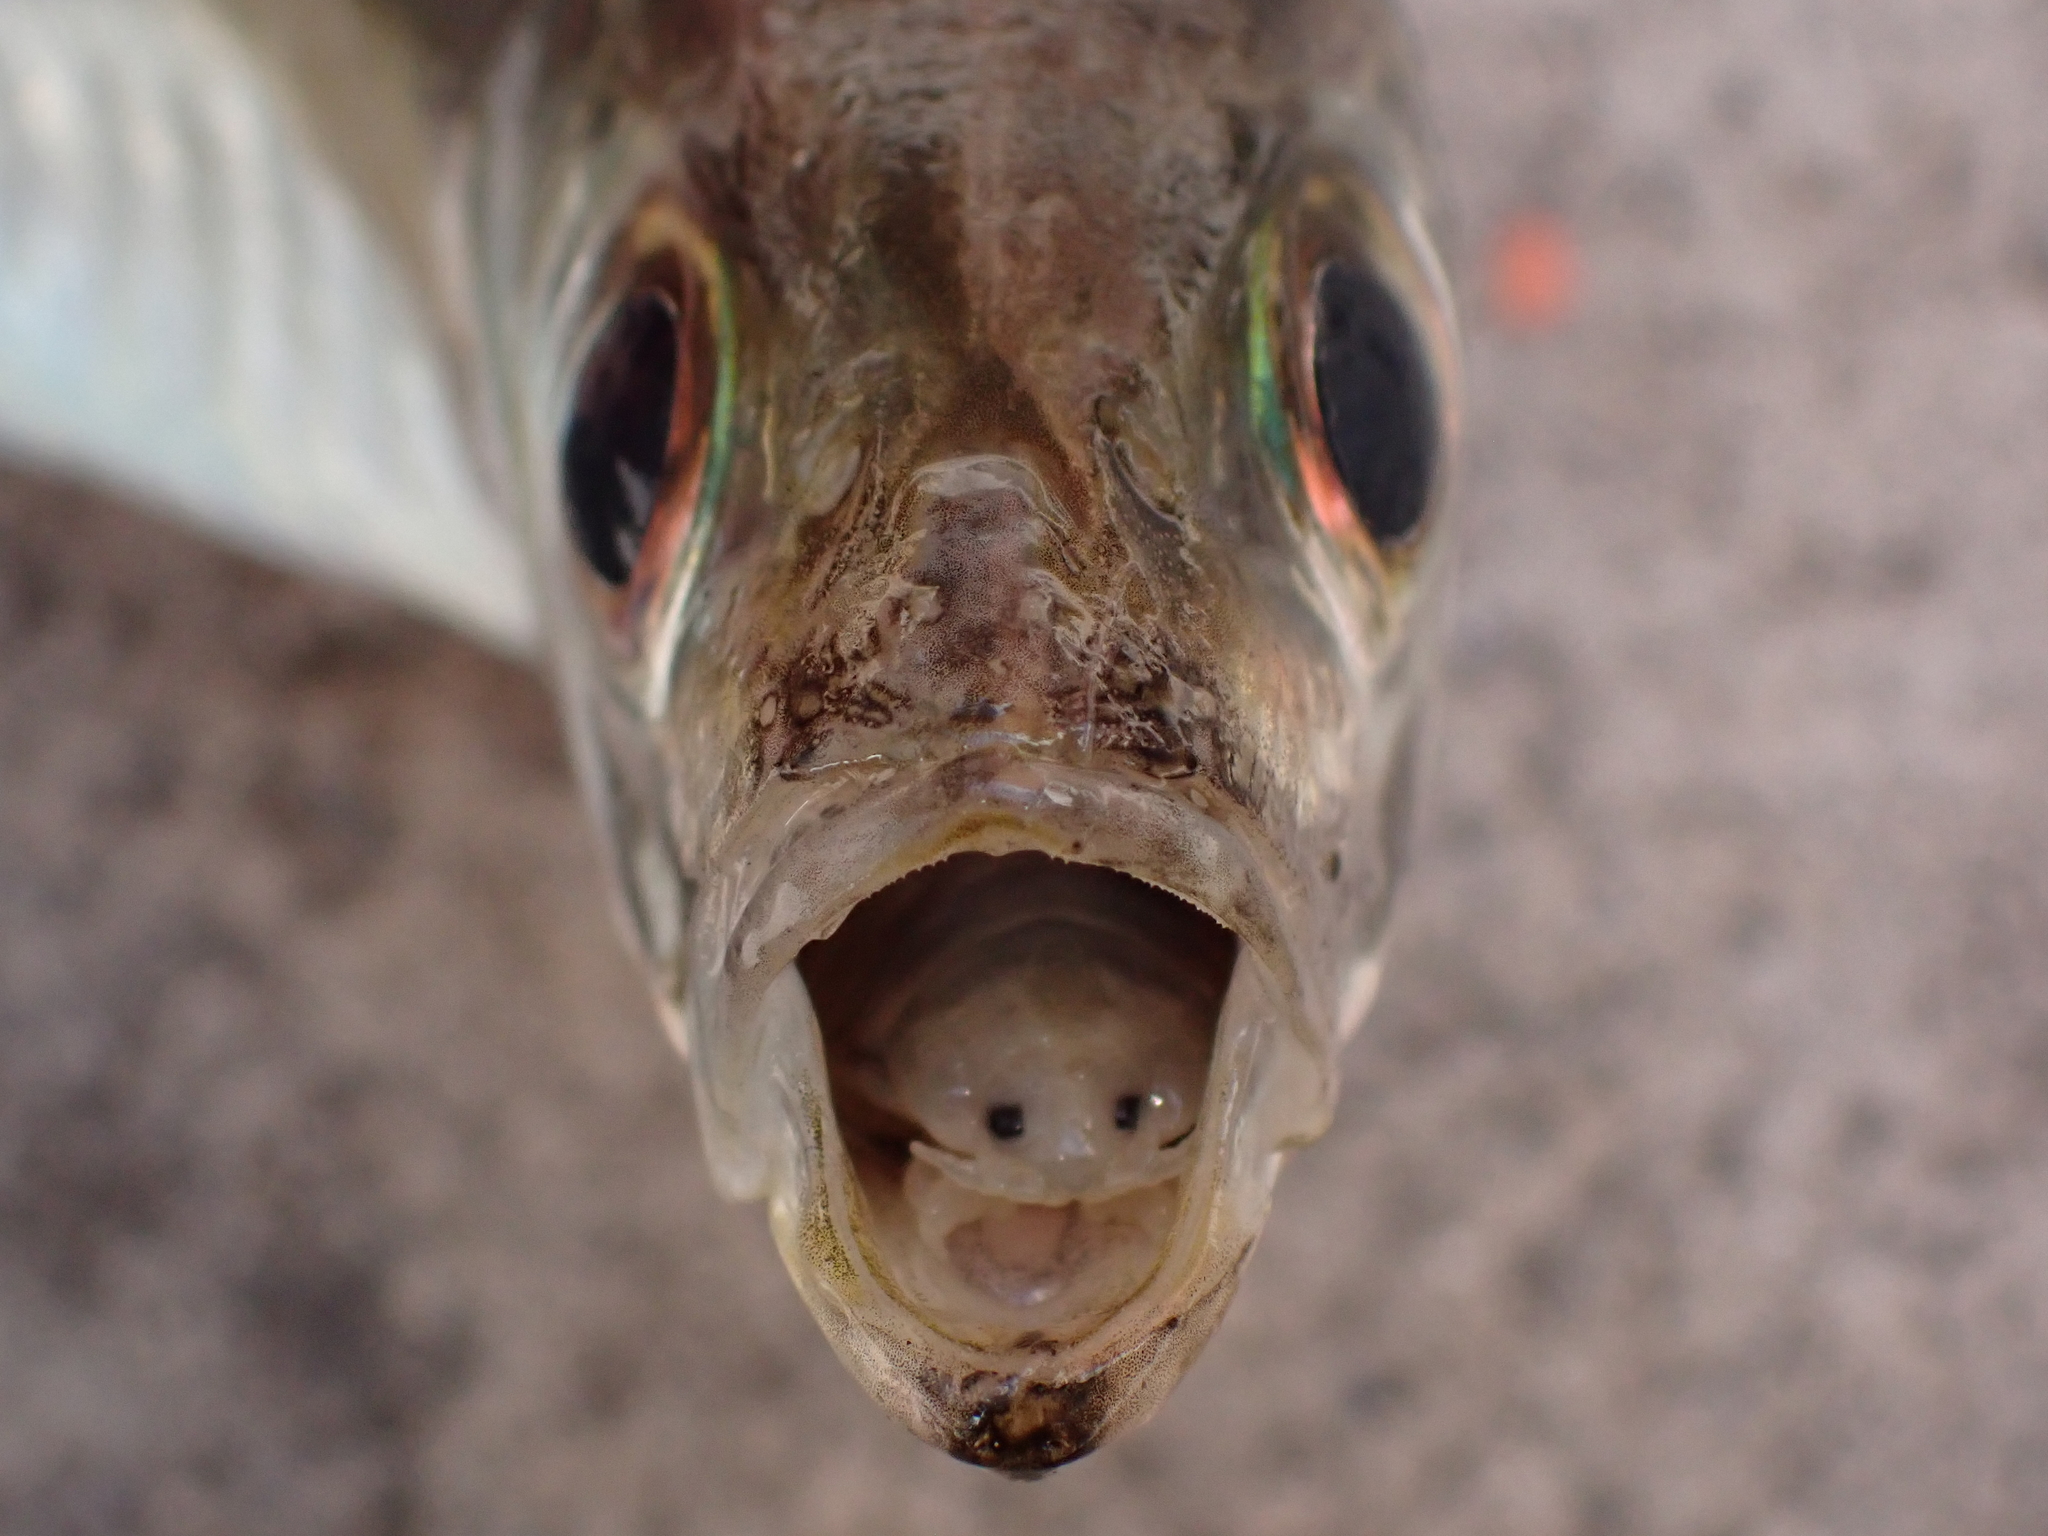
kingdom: Animalia
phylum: Arthropoda
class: Malacostraca
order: Isopoda
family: Cymothoidae
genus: Ceratothoa
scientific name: Ceratothoa
